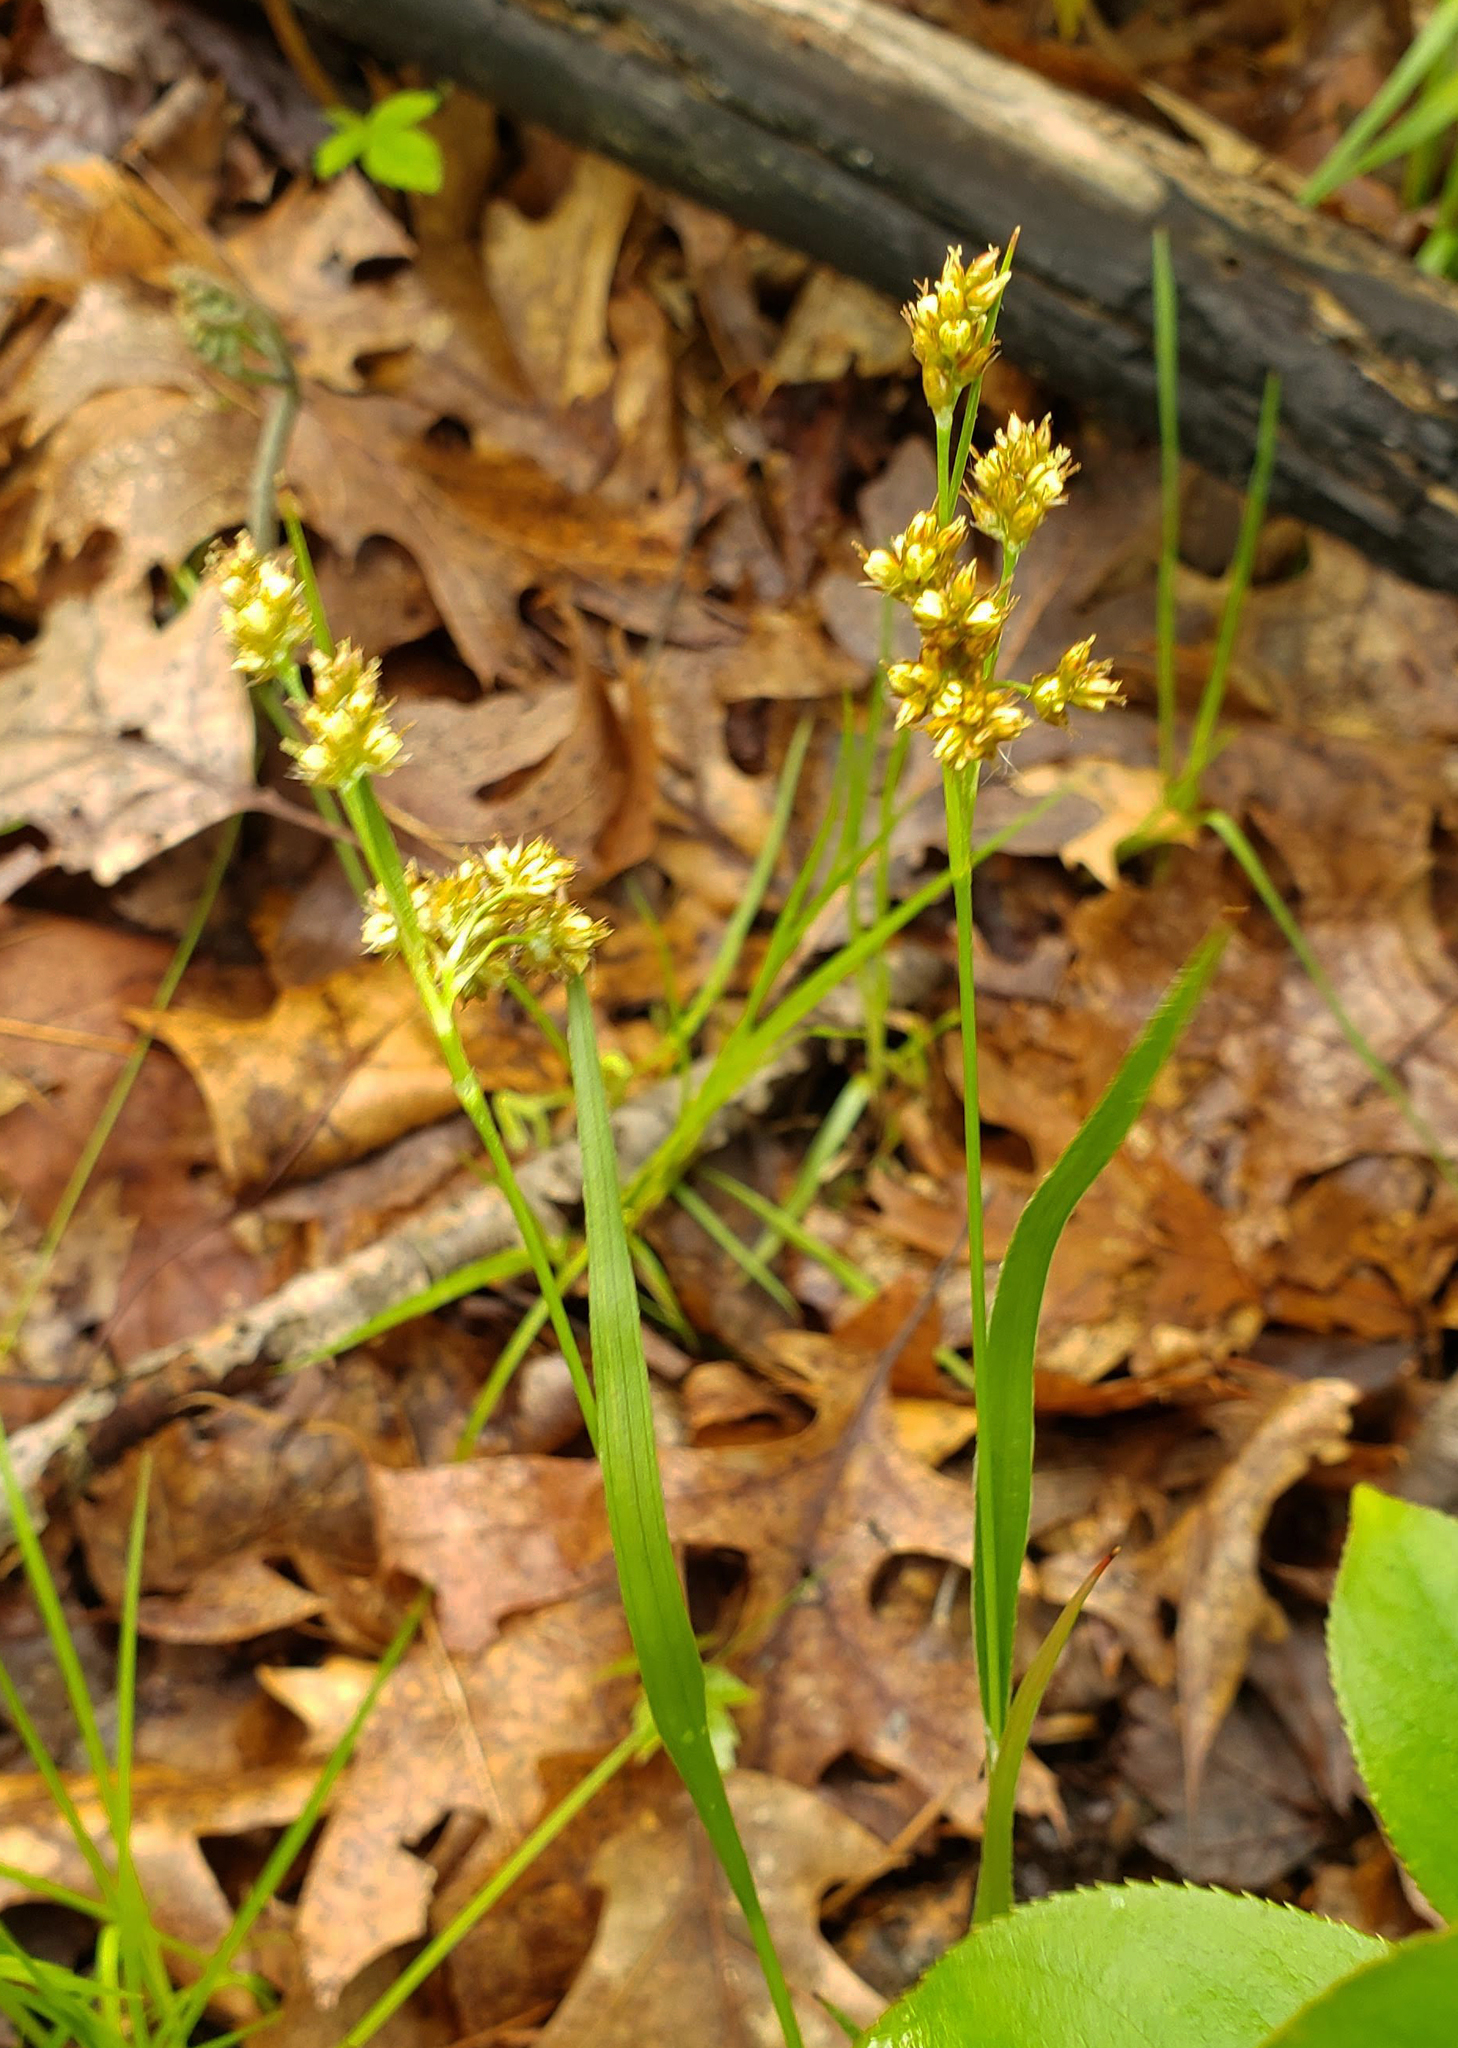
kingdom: Plantae
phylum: Tracheophyta
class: Liliopsida
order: Poales
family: Juncaceae
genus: Luzula
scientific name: Luzula multiflora
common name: Heath wood-rush
